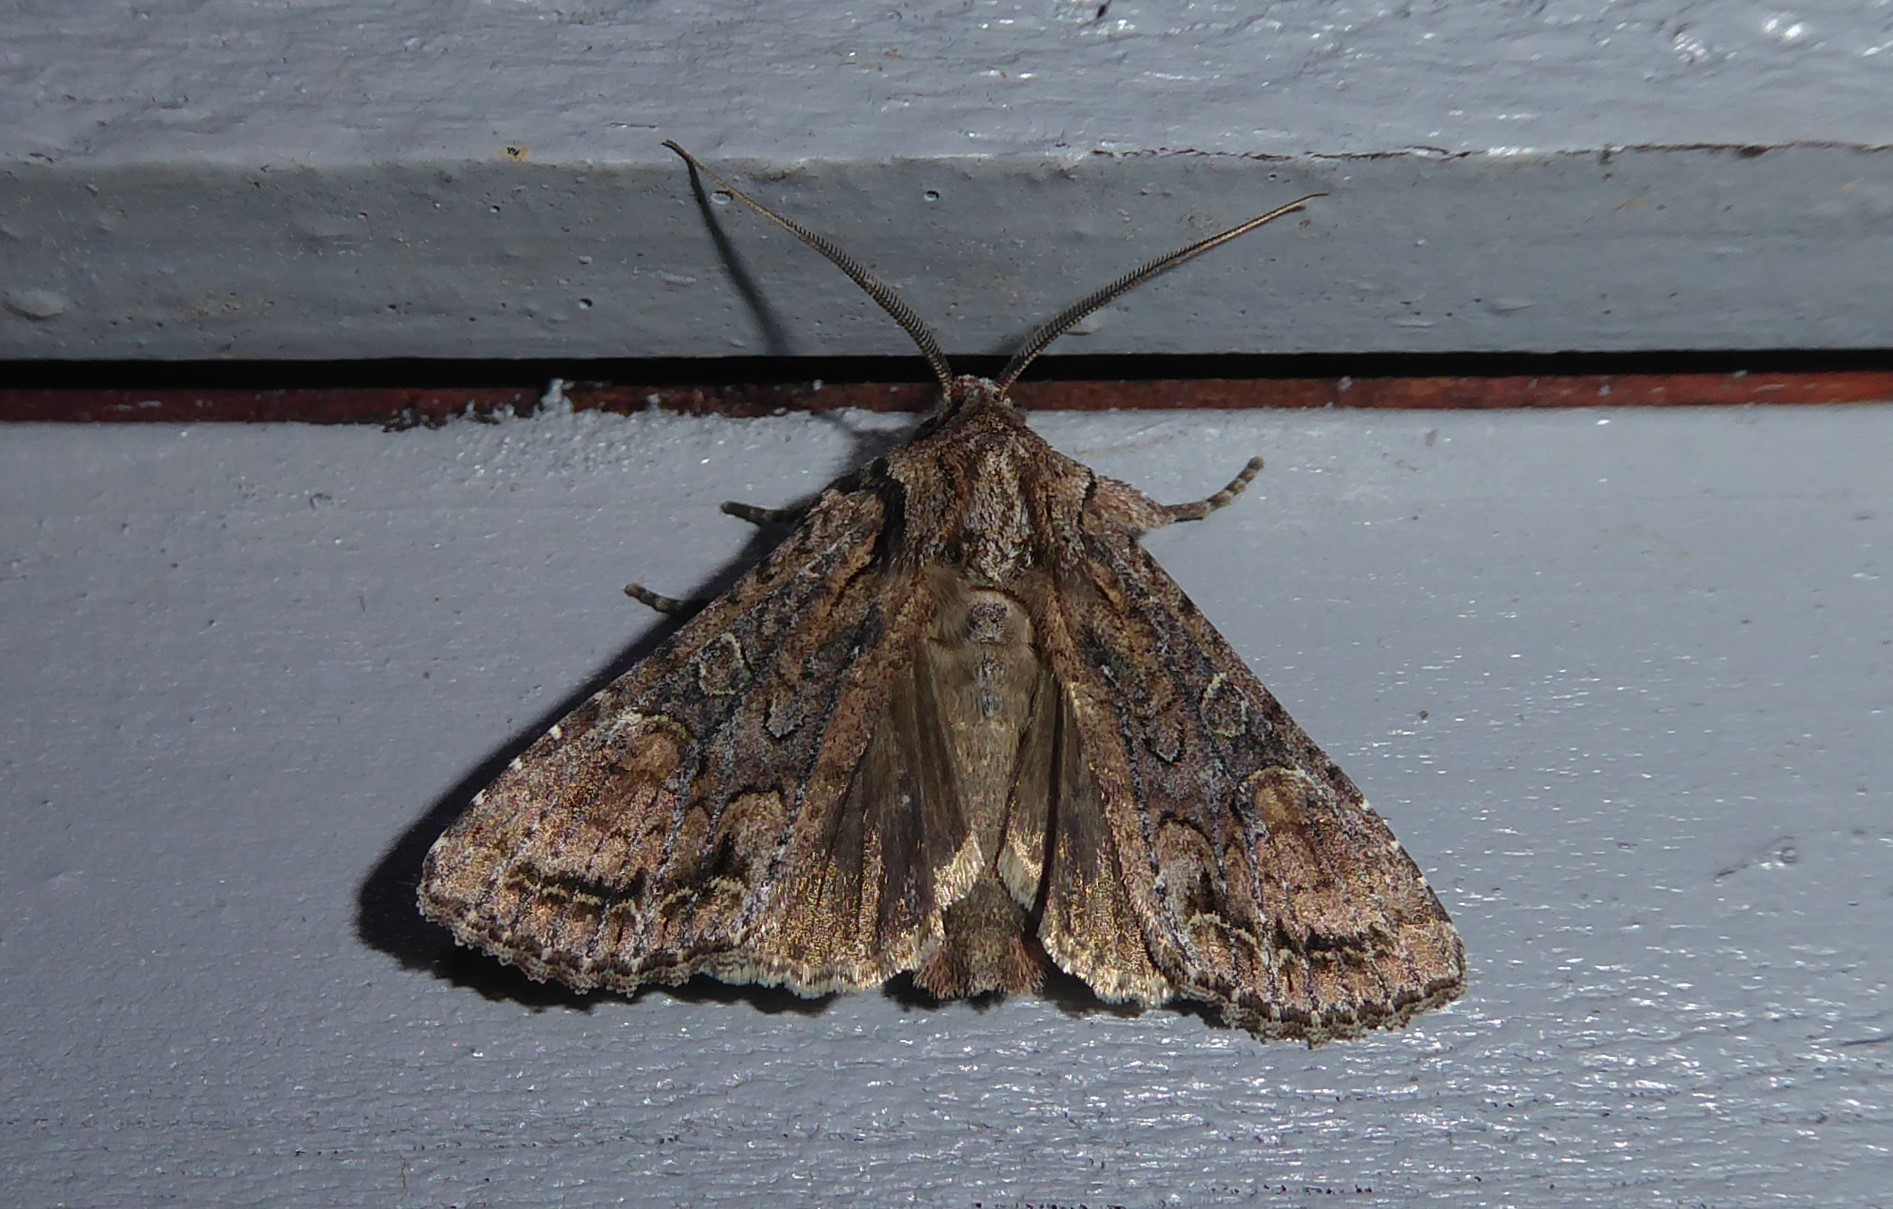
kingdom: Animalia
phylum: Arthropoda
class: Insecta
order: Lepidoptera
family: Noctuidae
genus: Ichneutica
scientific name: Ichneutica mutans
